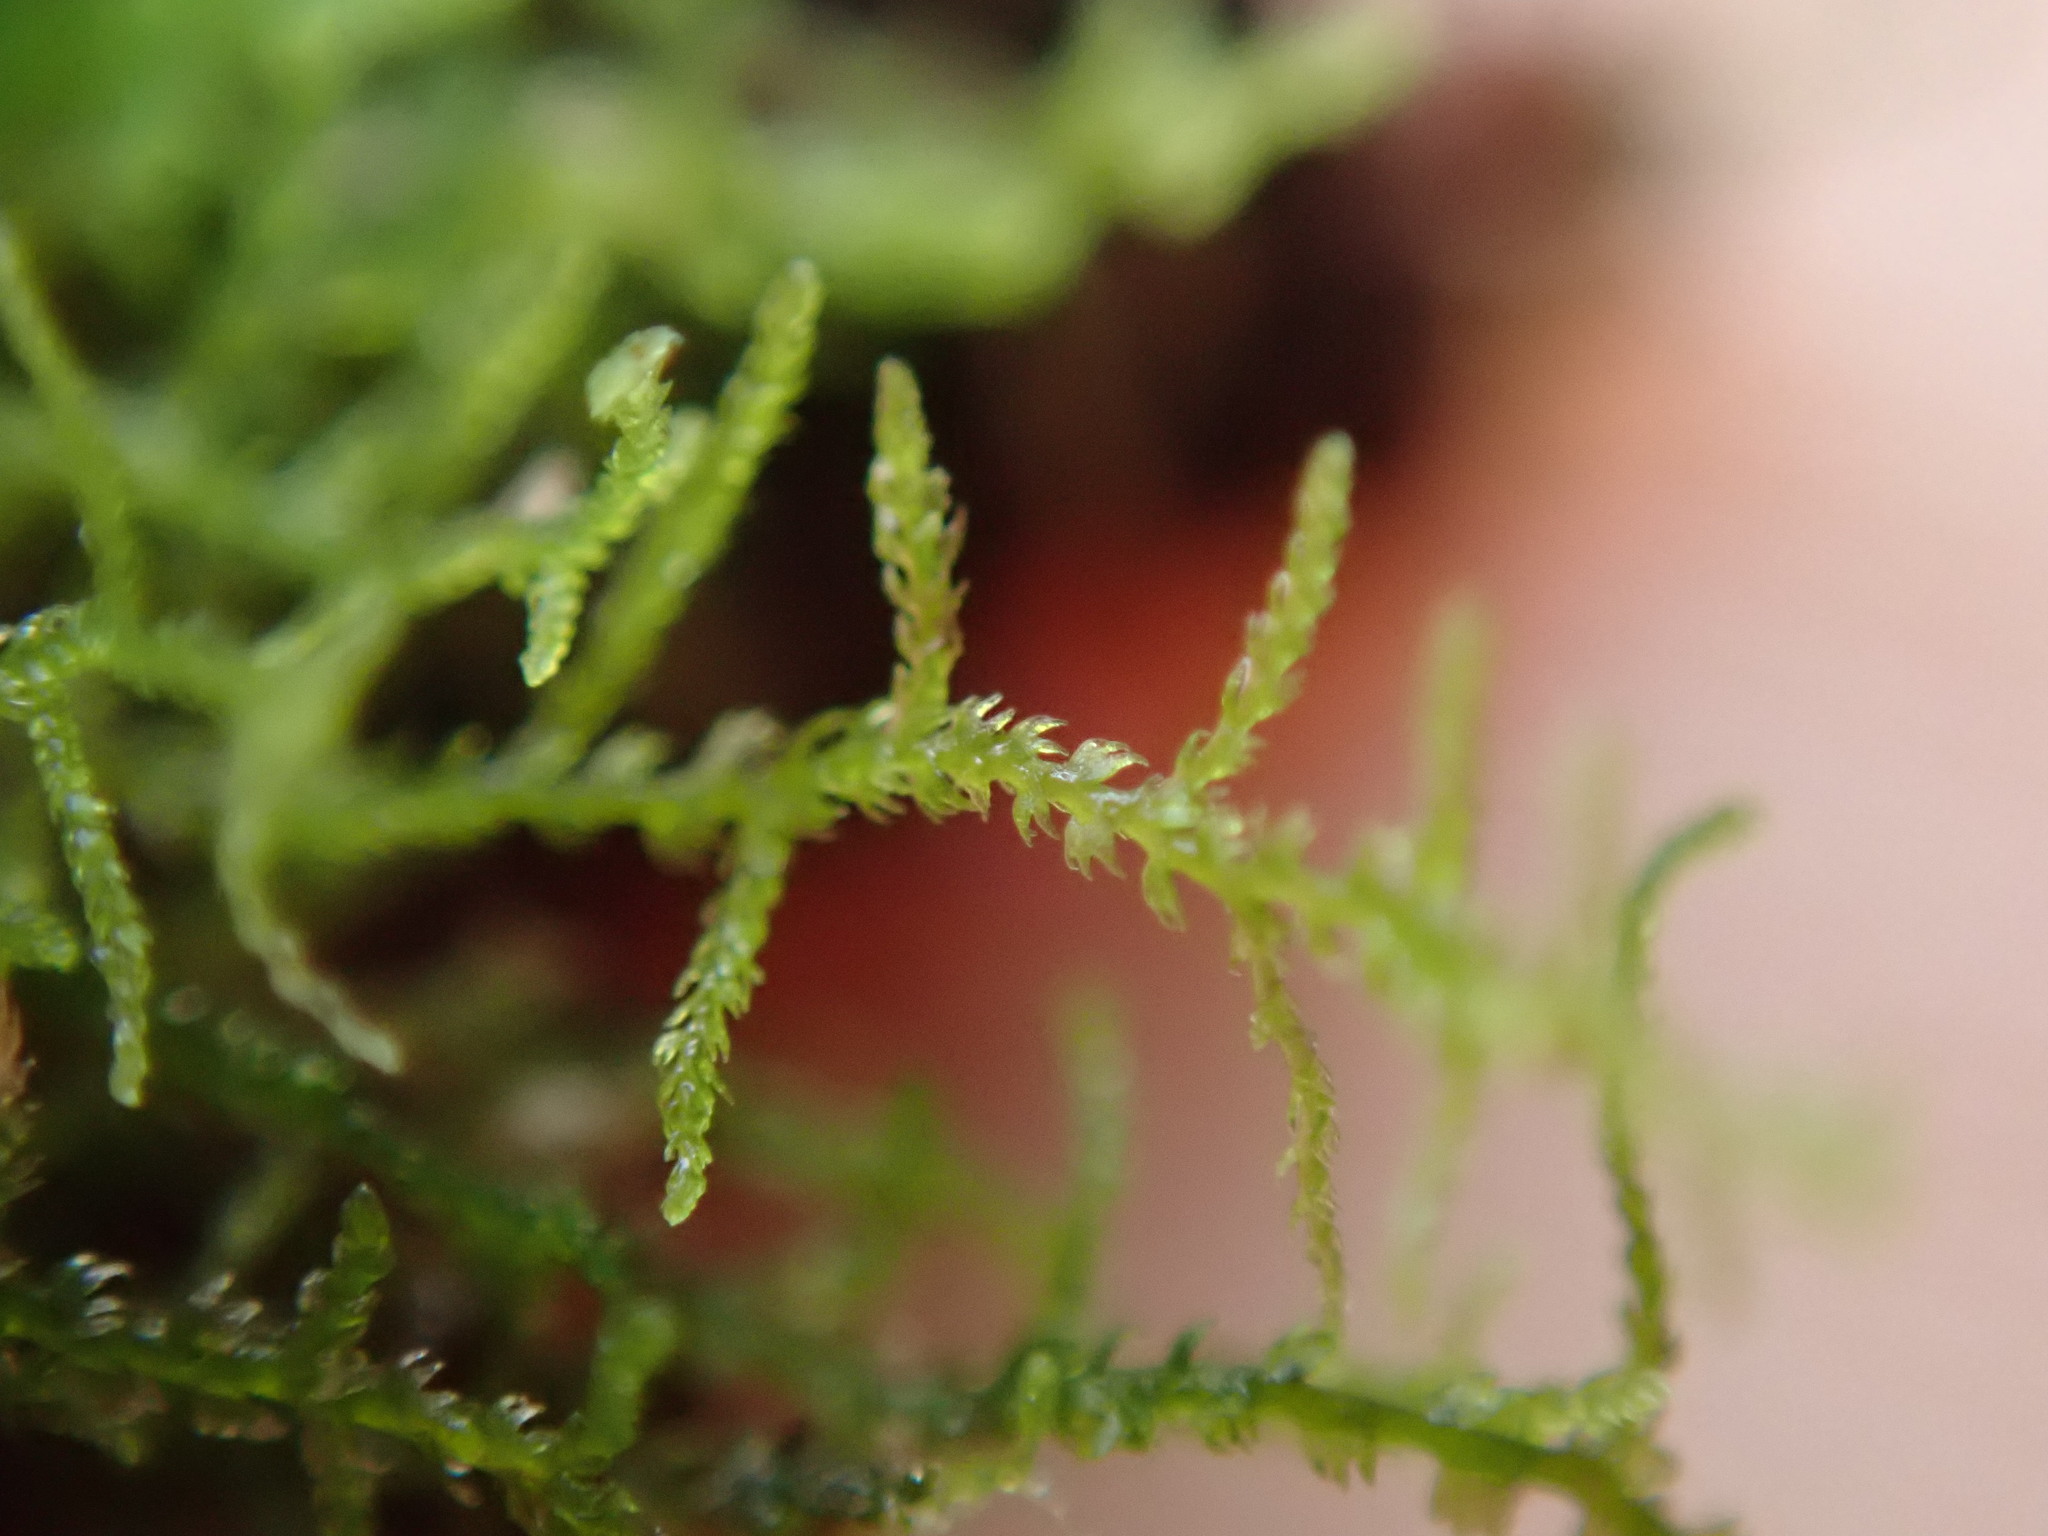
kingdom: Plantae
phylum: Marchantiophyta
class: Jungermanniopsida
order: Jungermanniales
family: Lepidoziaceae
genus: Lepidozia
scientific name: Lepidozia reptans
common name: Creeping fingerwort
